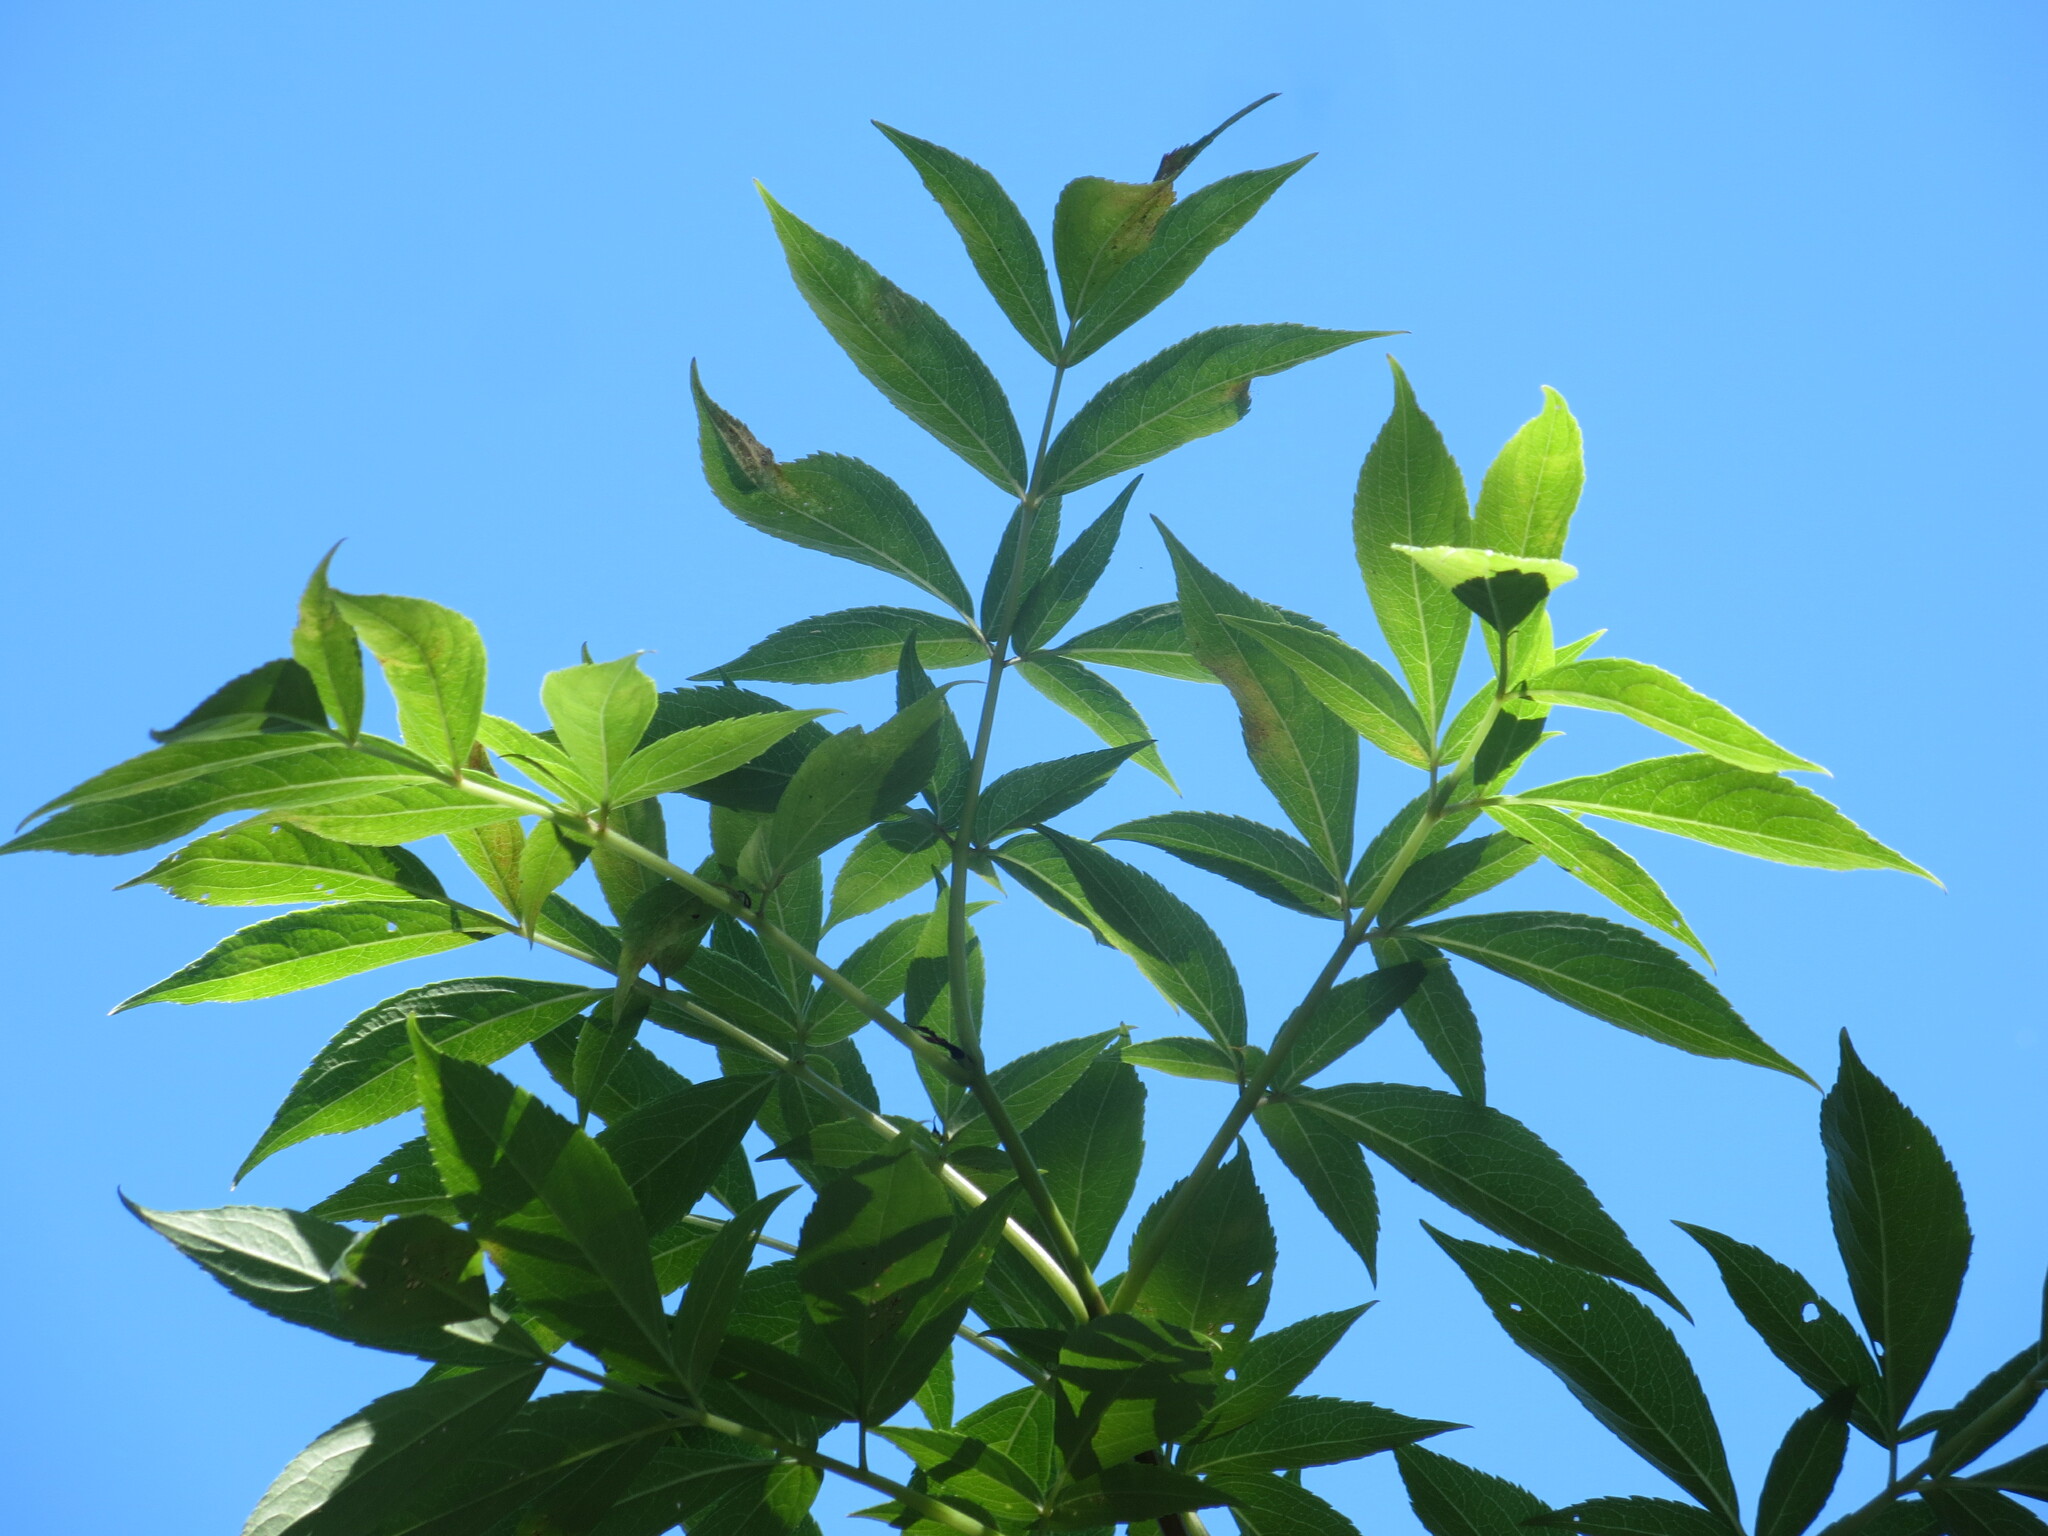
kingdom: Plantae
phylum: Tracheophyta
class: Magnoliopsida
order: Dipsacales
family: Viburnaceae
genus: Sambucus
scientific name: Sambucus canadensis
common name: American elder
